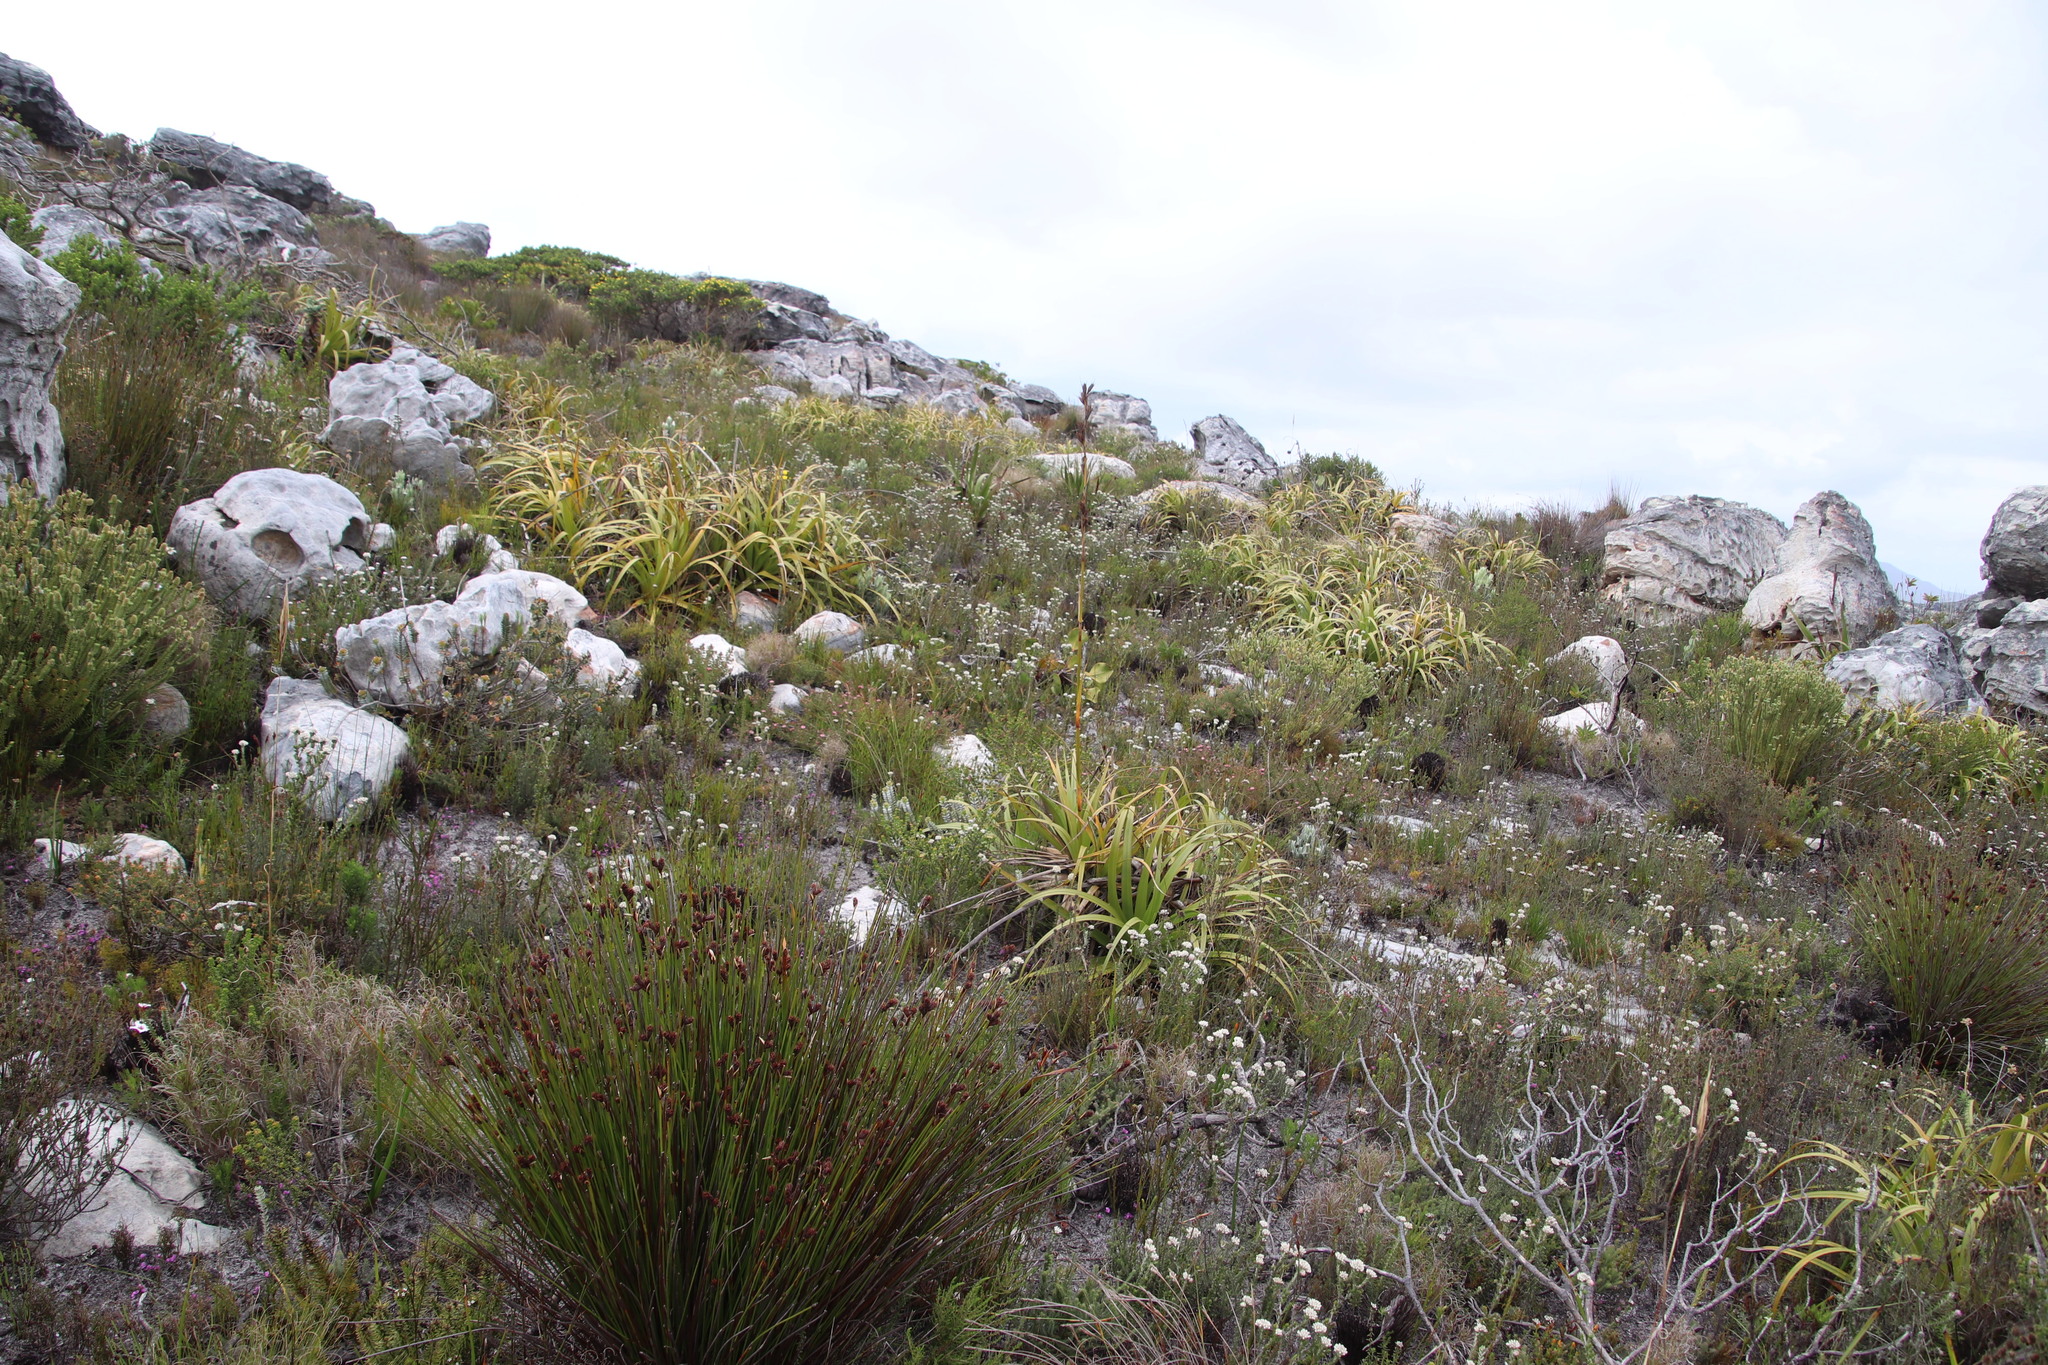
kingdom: Plantae
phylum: Tracheophyta
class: Liliopsida
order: Poales
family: Cyperaceae
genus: Tetraria
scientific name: Tetraria thermalis
